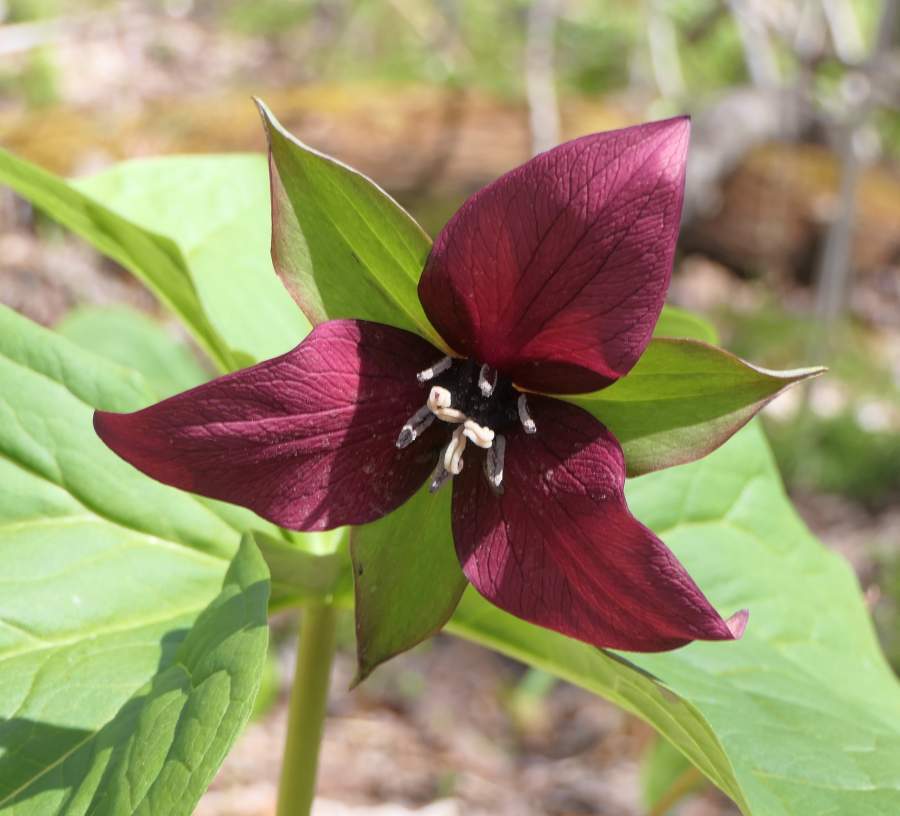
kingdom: Plantae
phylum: Tracheophyta
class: Liliopsida
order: Liliales
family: Melanthiaceae
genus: Trillium
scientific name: Trillium erectum
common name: Purple trillium
